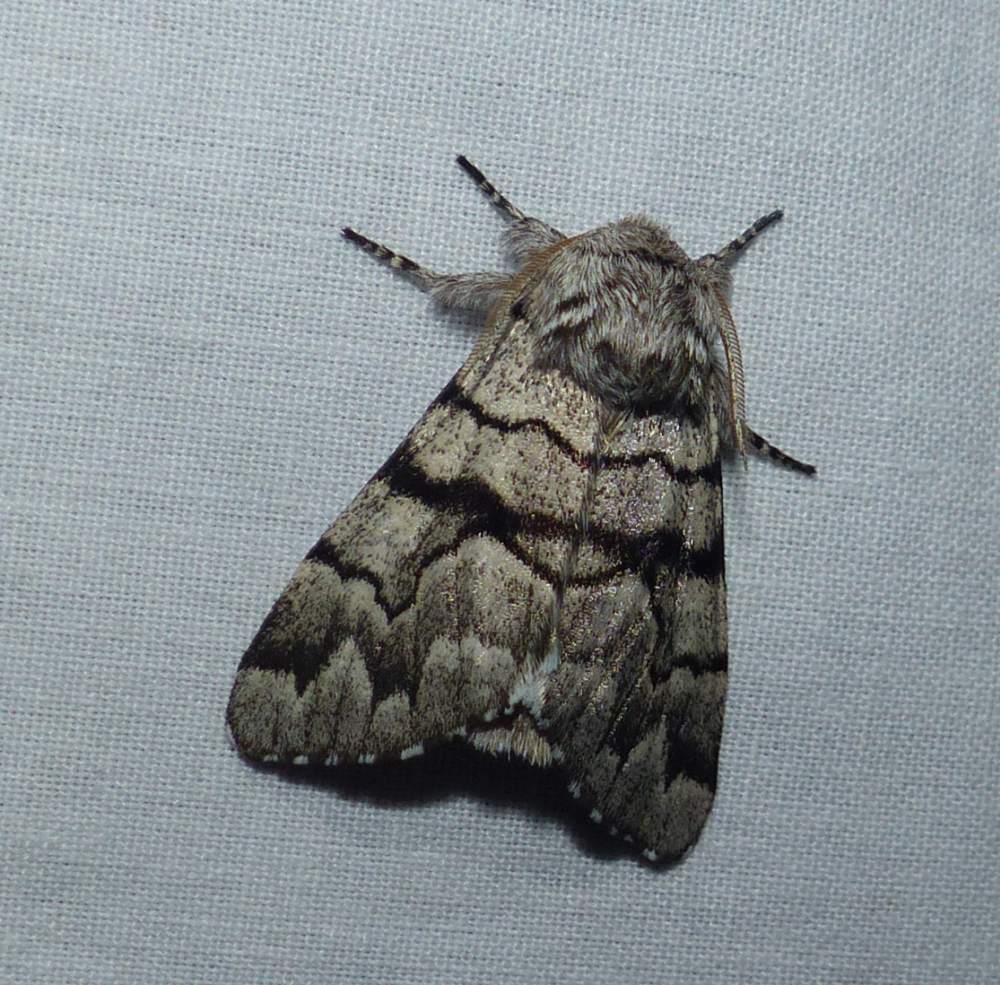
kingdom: Animalia
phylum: Arthropoda
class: Insecta
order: Lepidoptera
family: Noctuidae
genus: Panthea
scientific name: Panthea furcilla
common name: Eastern panthea moth
